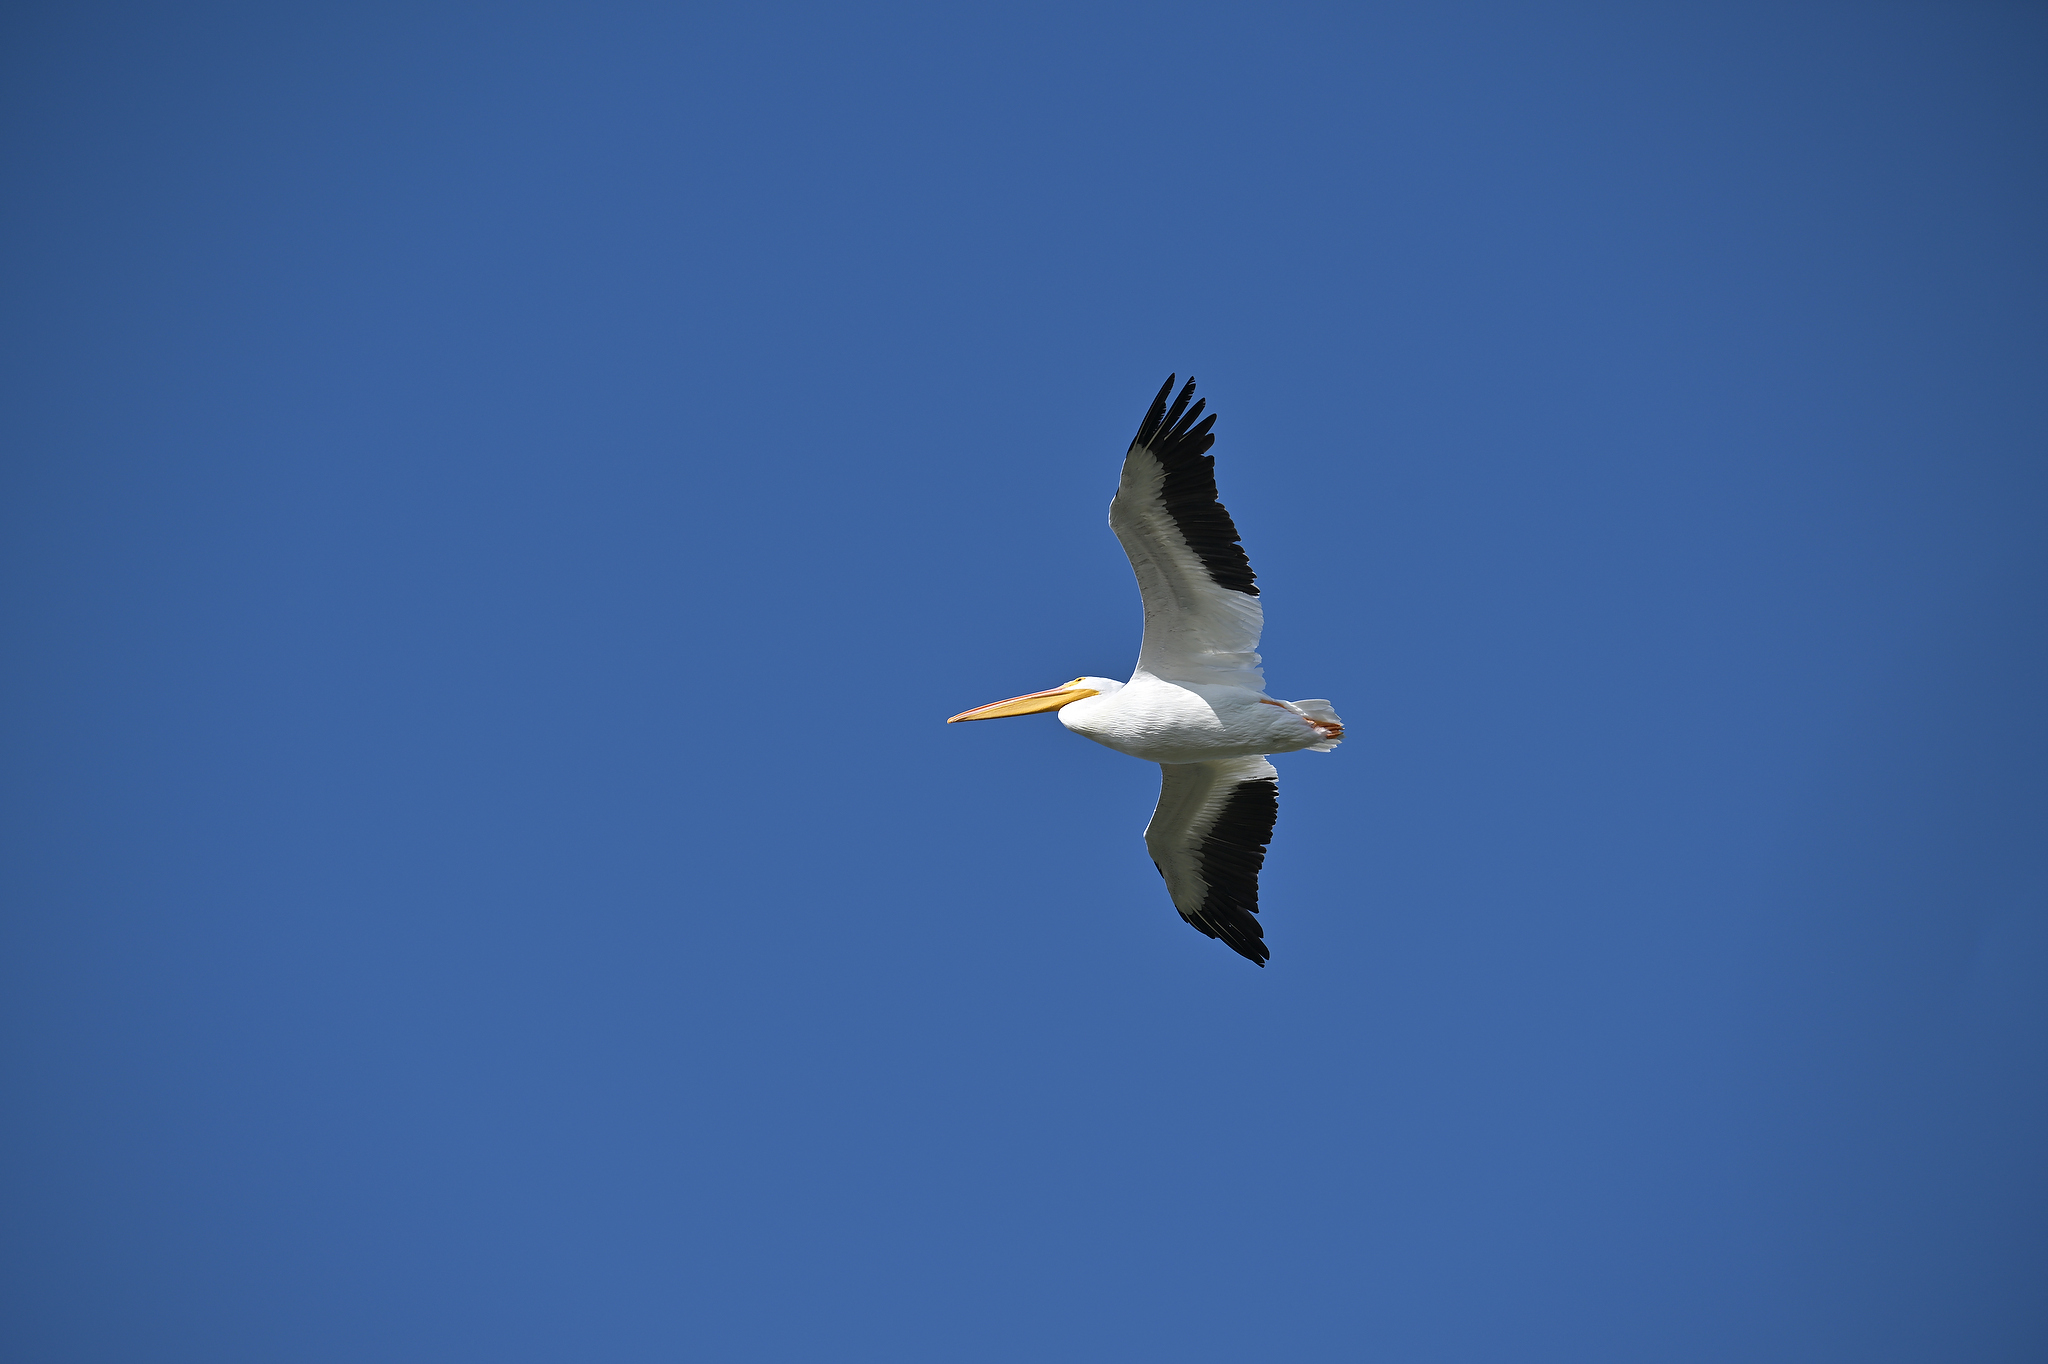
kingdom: Animalia
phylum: Chordata
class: Aves
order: Pelecaniformes
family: Pelecanidae
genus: Pelecanus
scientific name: Pelecanus erythrorhynchos
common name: American white pelican
